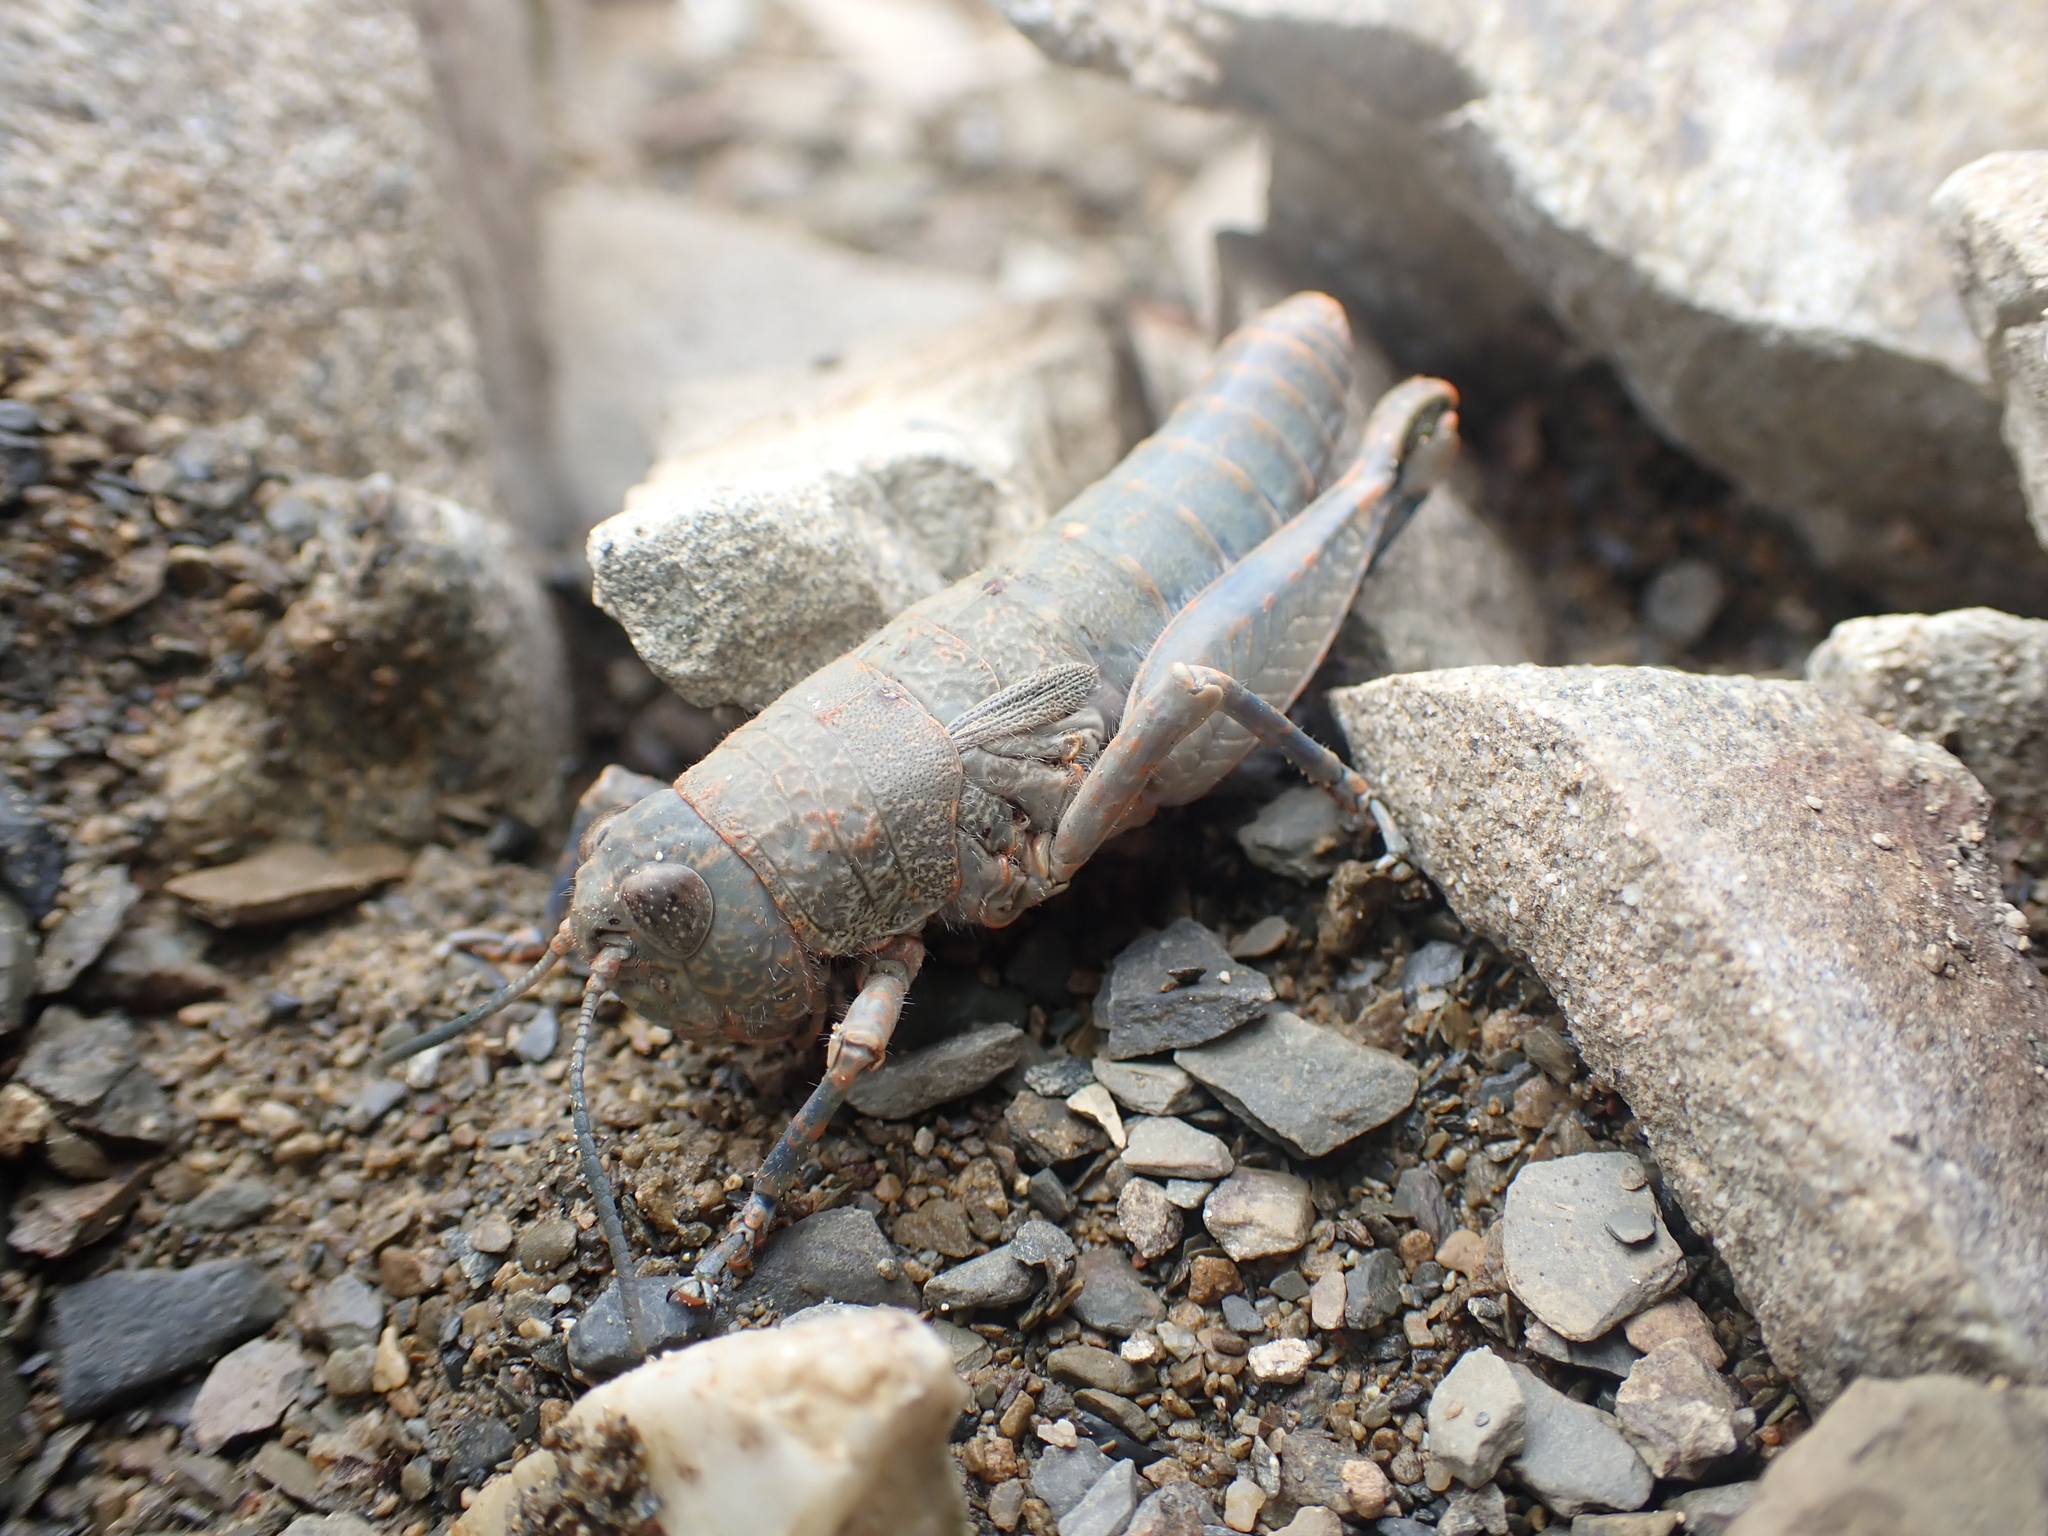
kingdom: Animalia
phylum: Arthropoda
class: Insecta
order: Orthoptera
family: Acrididae
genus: Sigaus
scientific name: Sigaus
